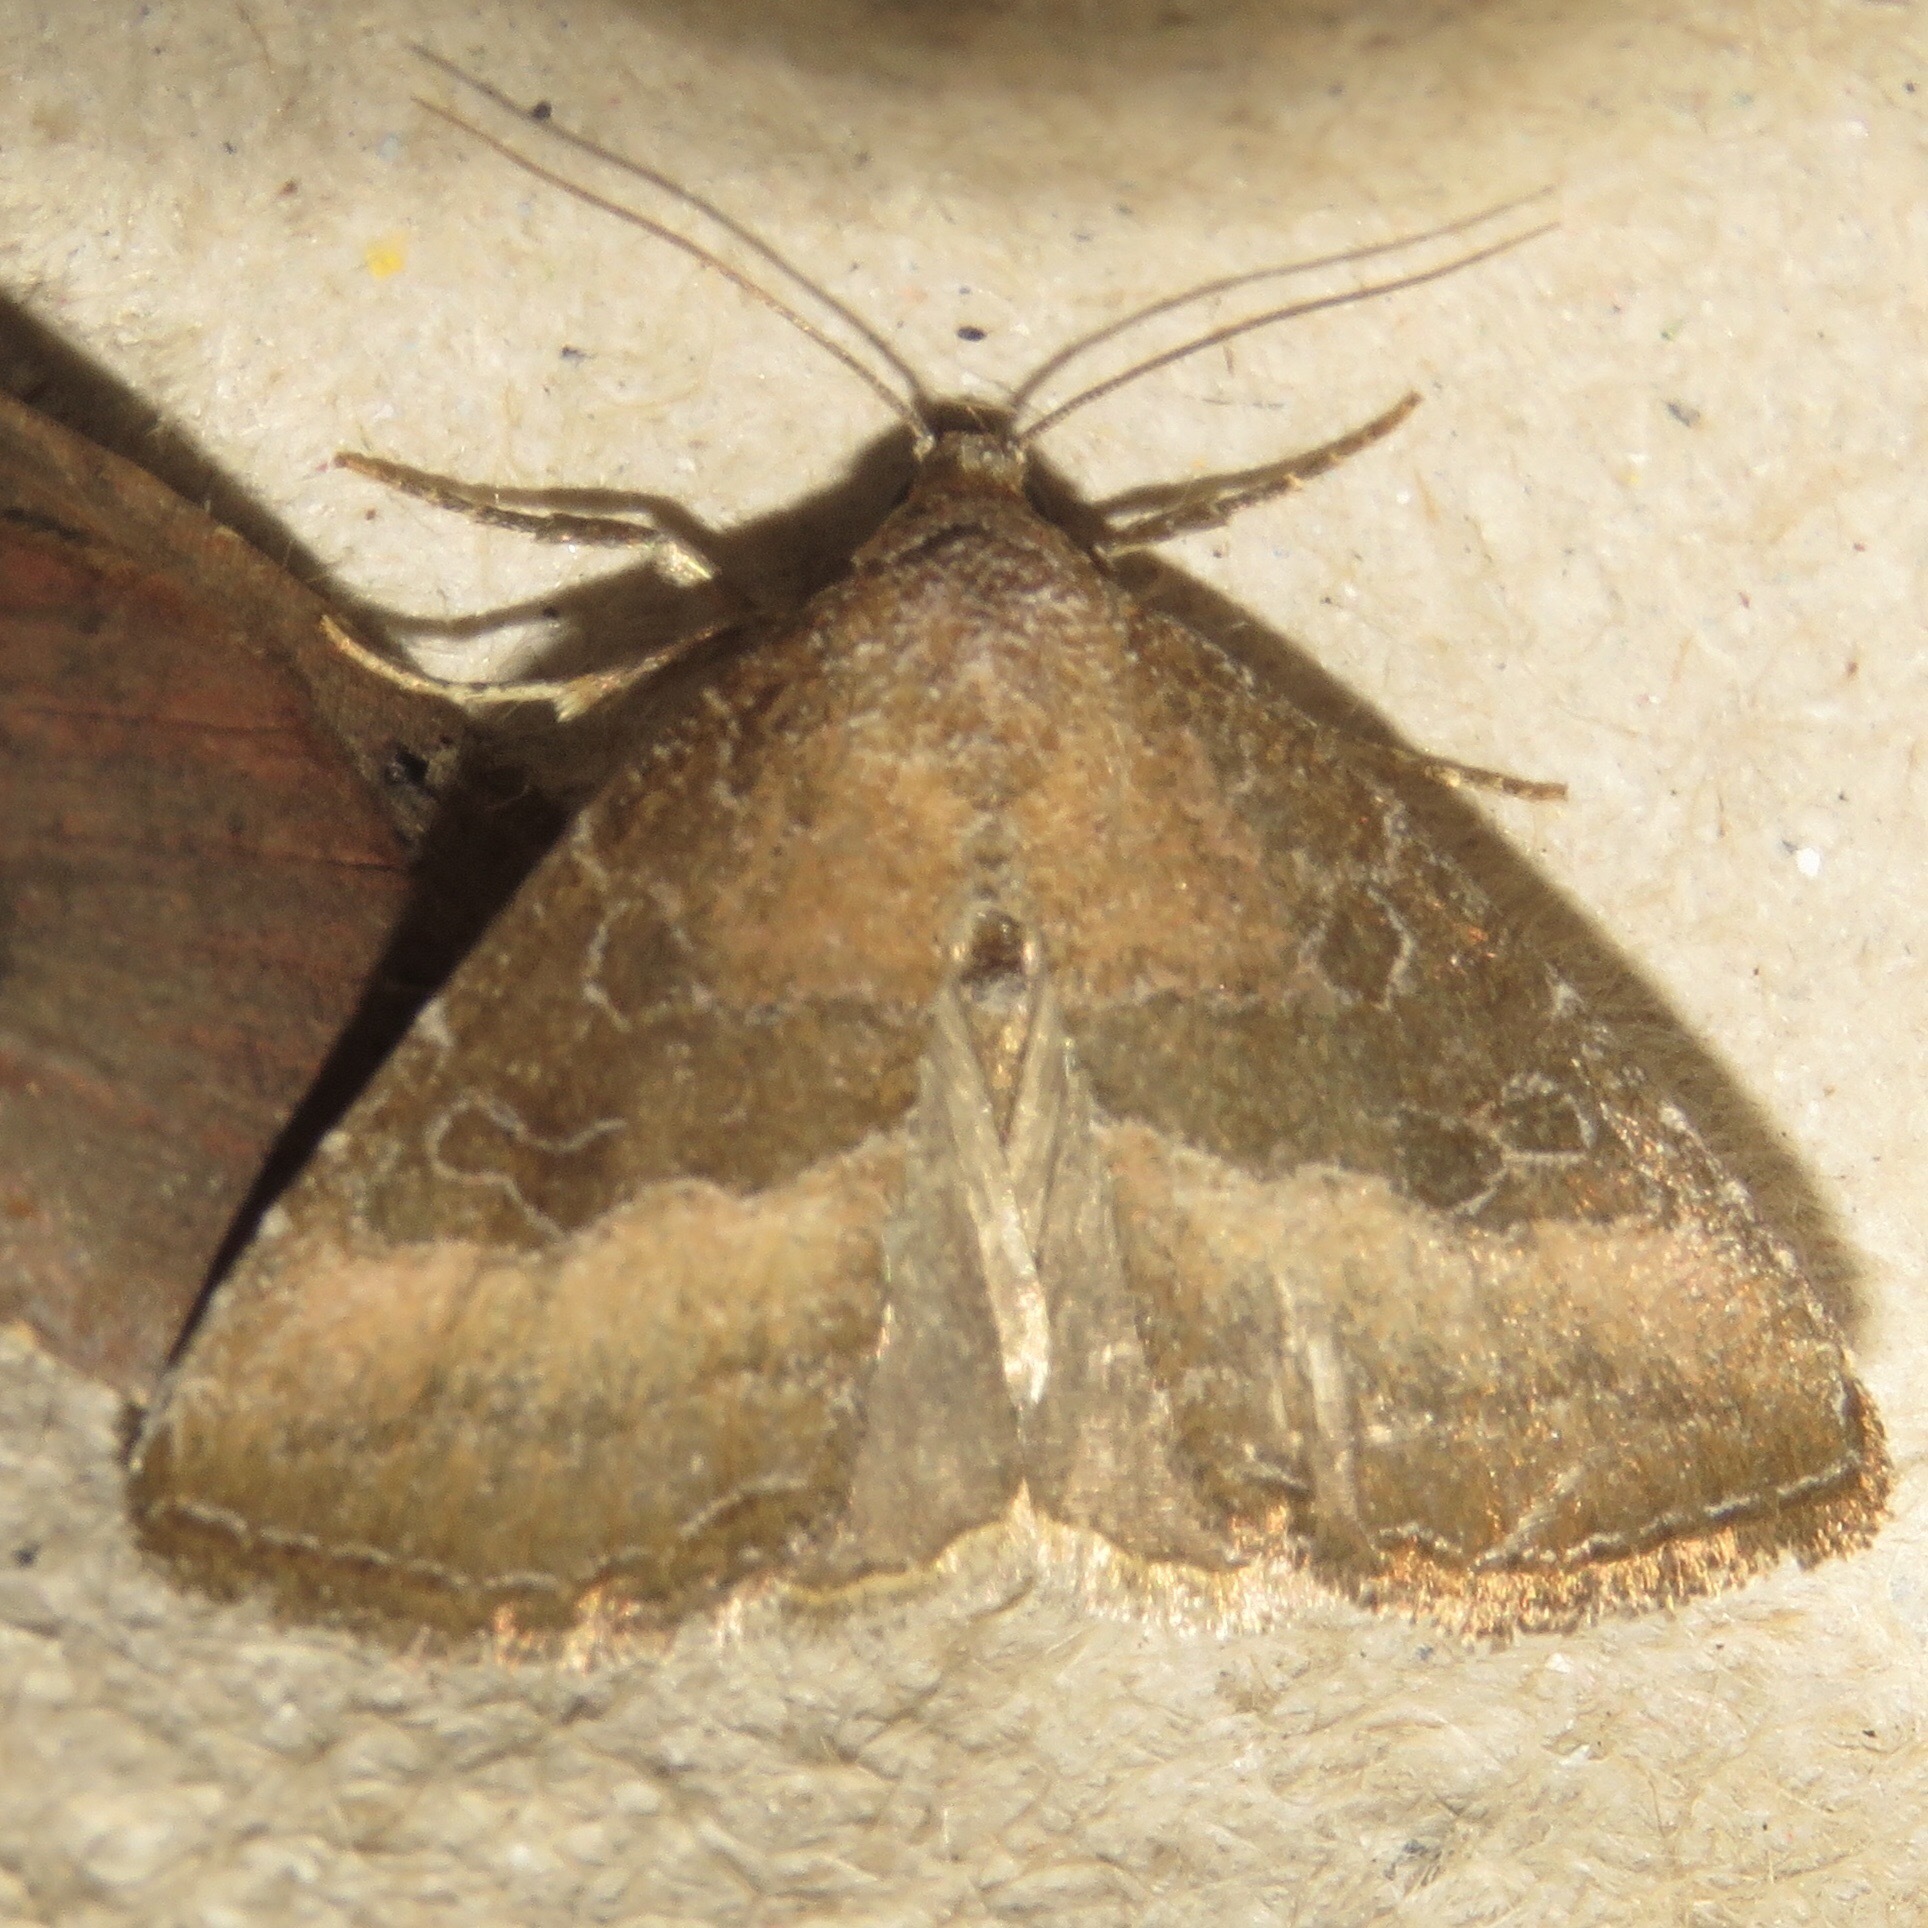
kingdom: Animalia
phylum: Arthropoda
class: Insecta
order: Lepidoptera
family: Noctuidae
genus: Ogdoconta
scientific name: Ogdoconta cinereola
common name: Common pinkband
